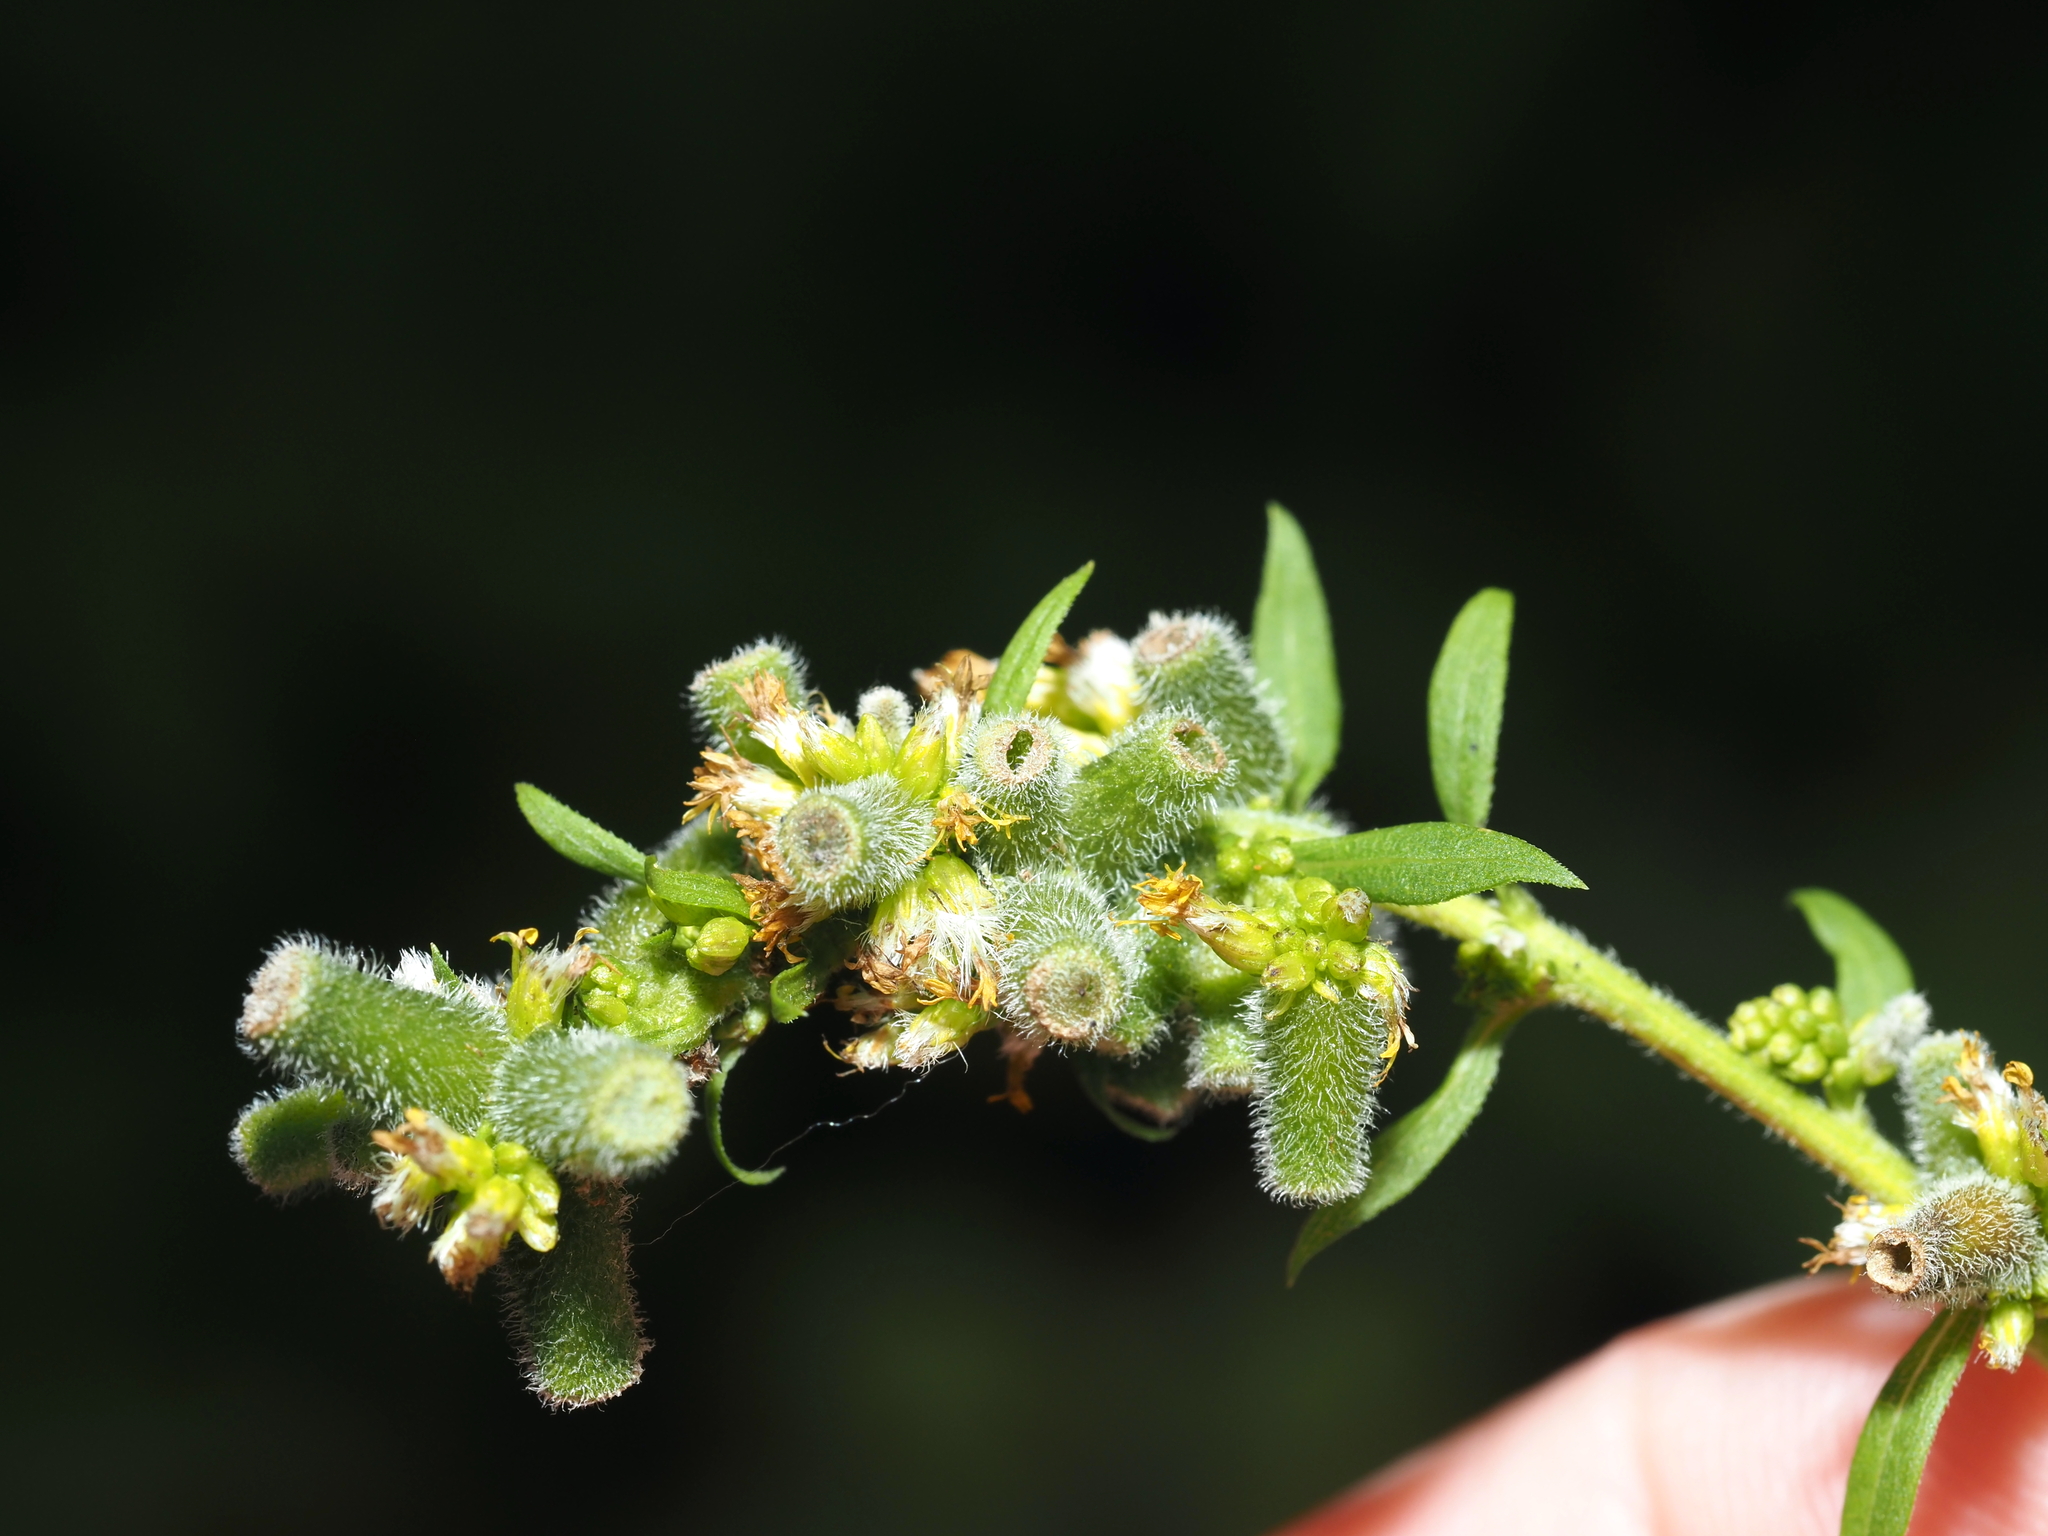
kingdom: Animalia
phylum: Arthropoda
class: Insecta
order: Diptera
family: Cecidomyiidae
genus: Rhopalomyia
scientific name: Rhopalomyia anthophila
